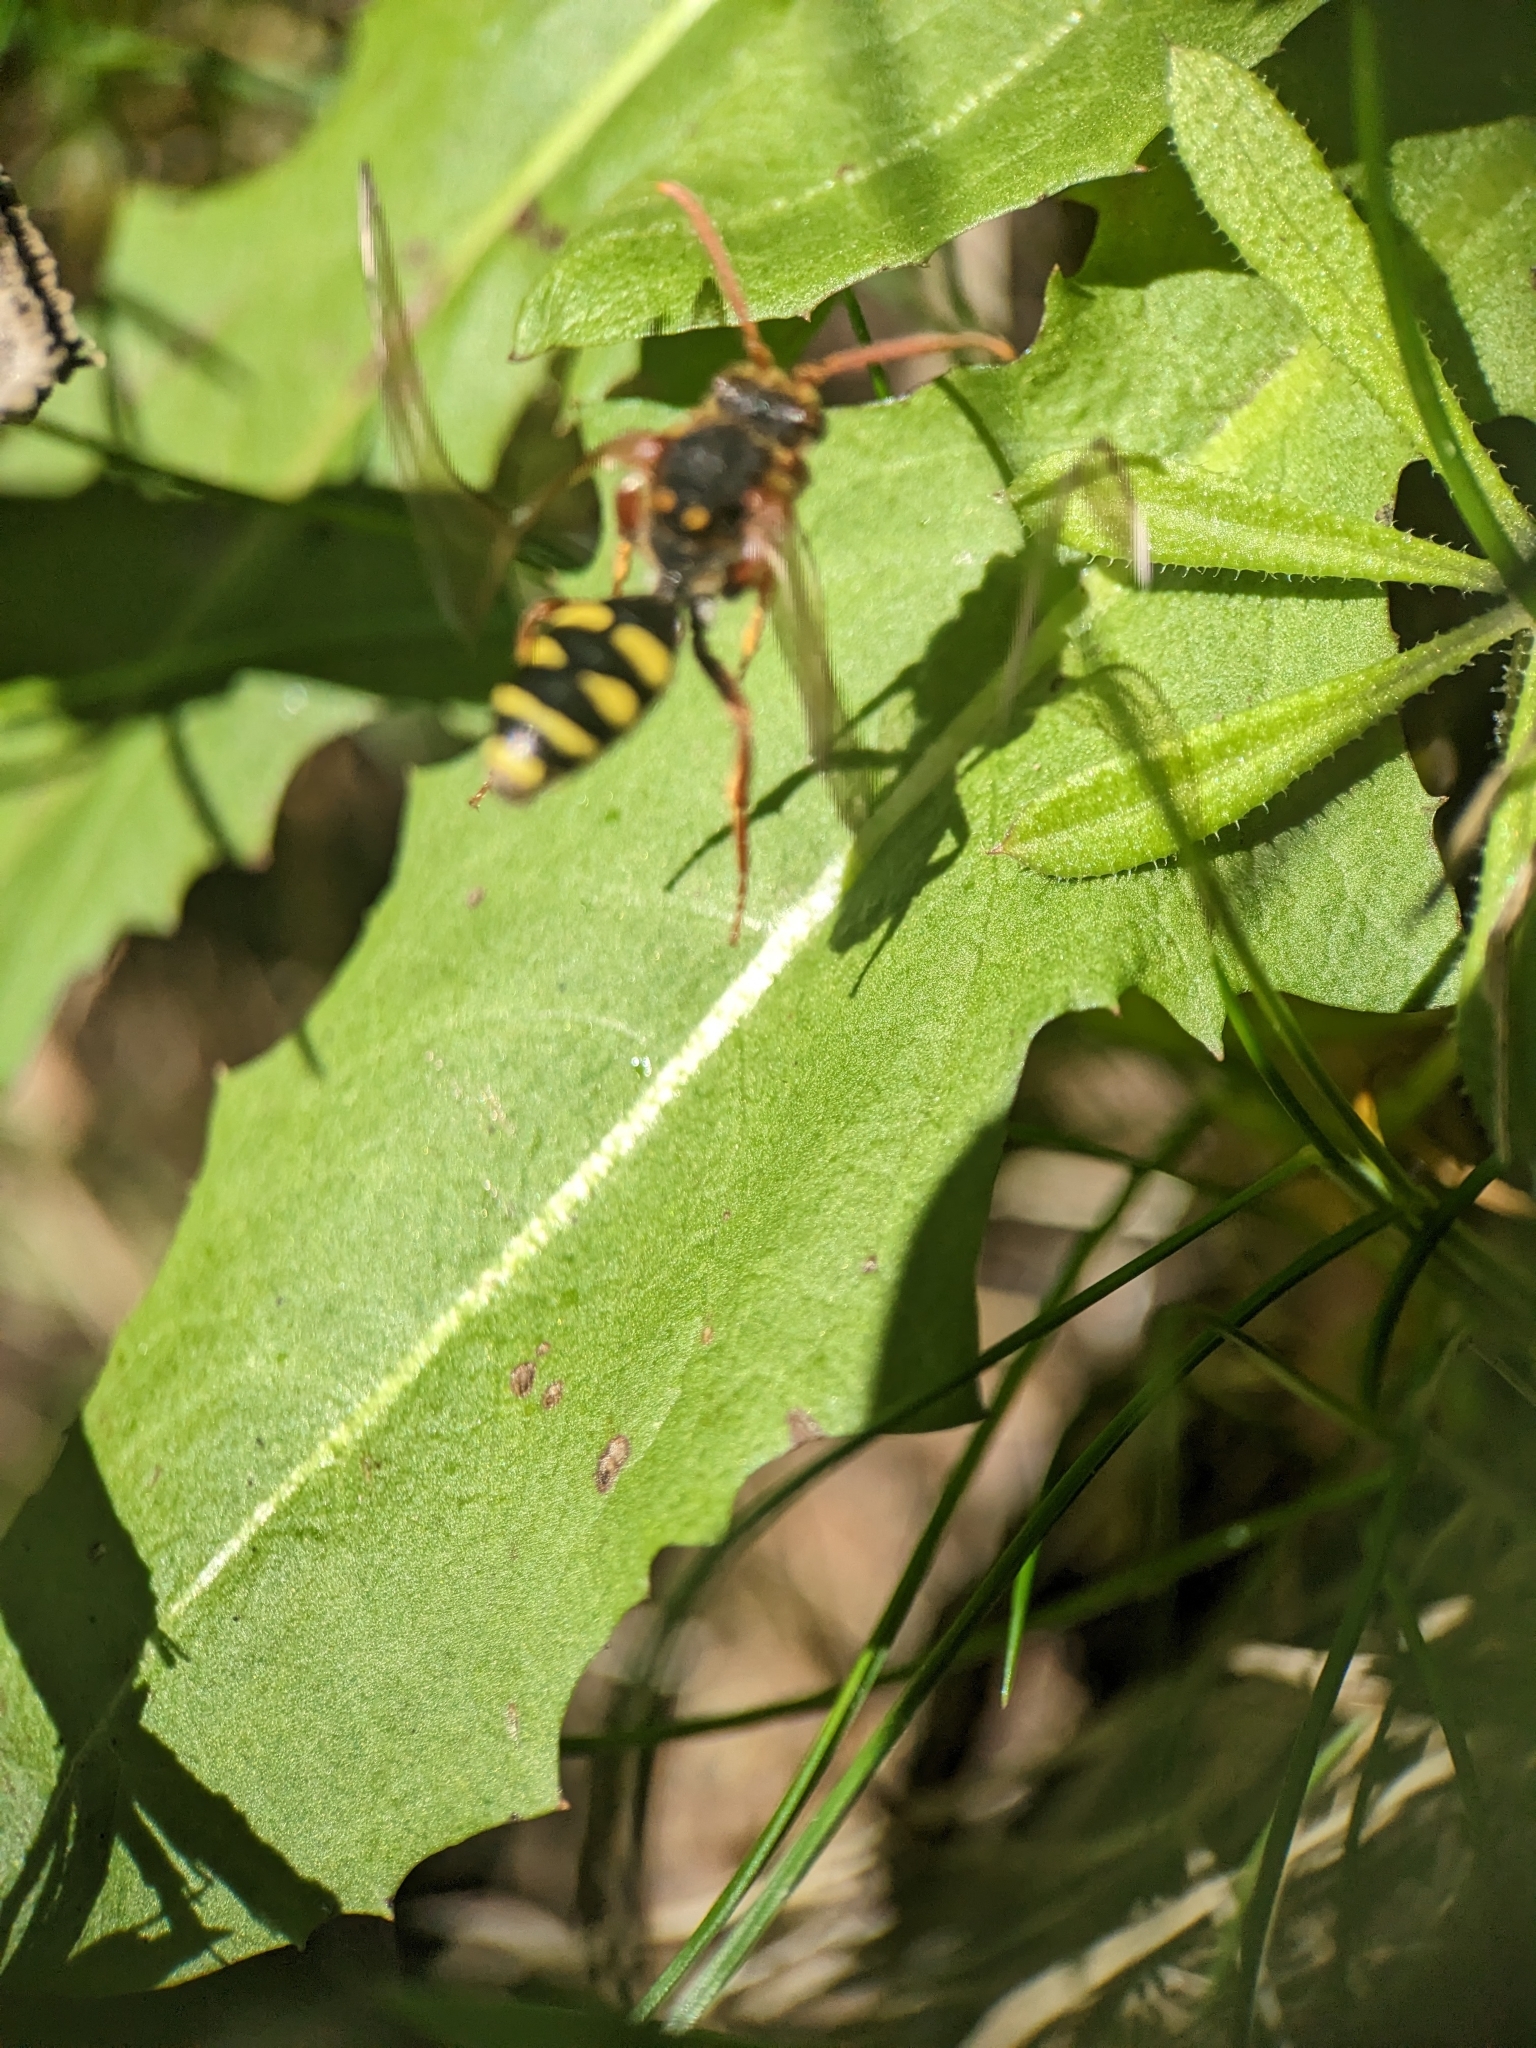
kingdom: Animalia
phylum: Arthropoda
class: Insecta
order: Hymenoptera
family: Apidae
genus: Nomada
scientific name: Nomada marshamella
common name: Marsham's nomad bee
